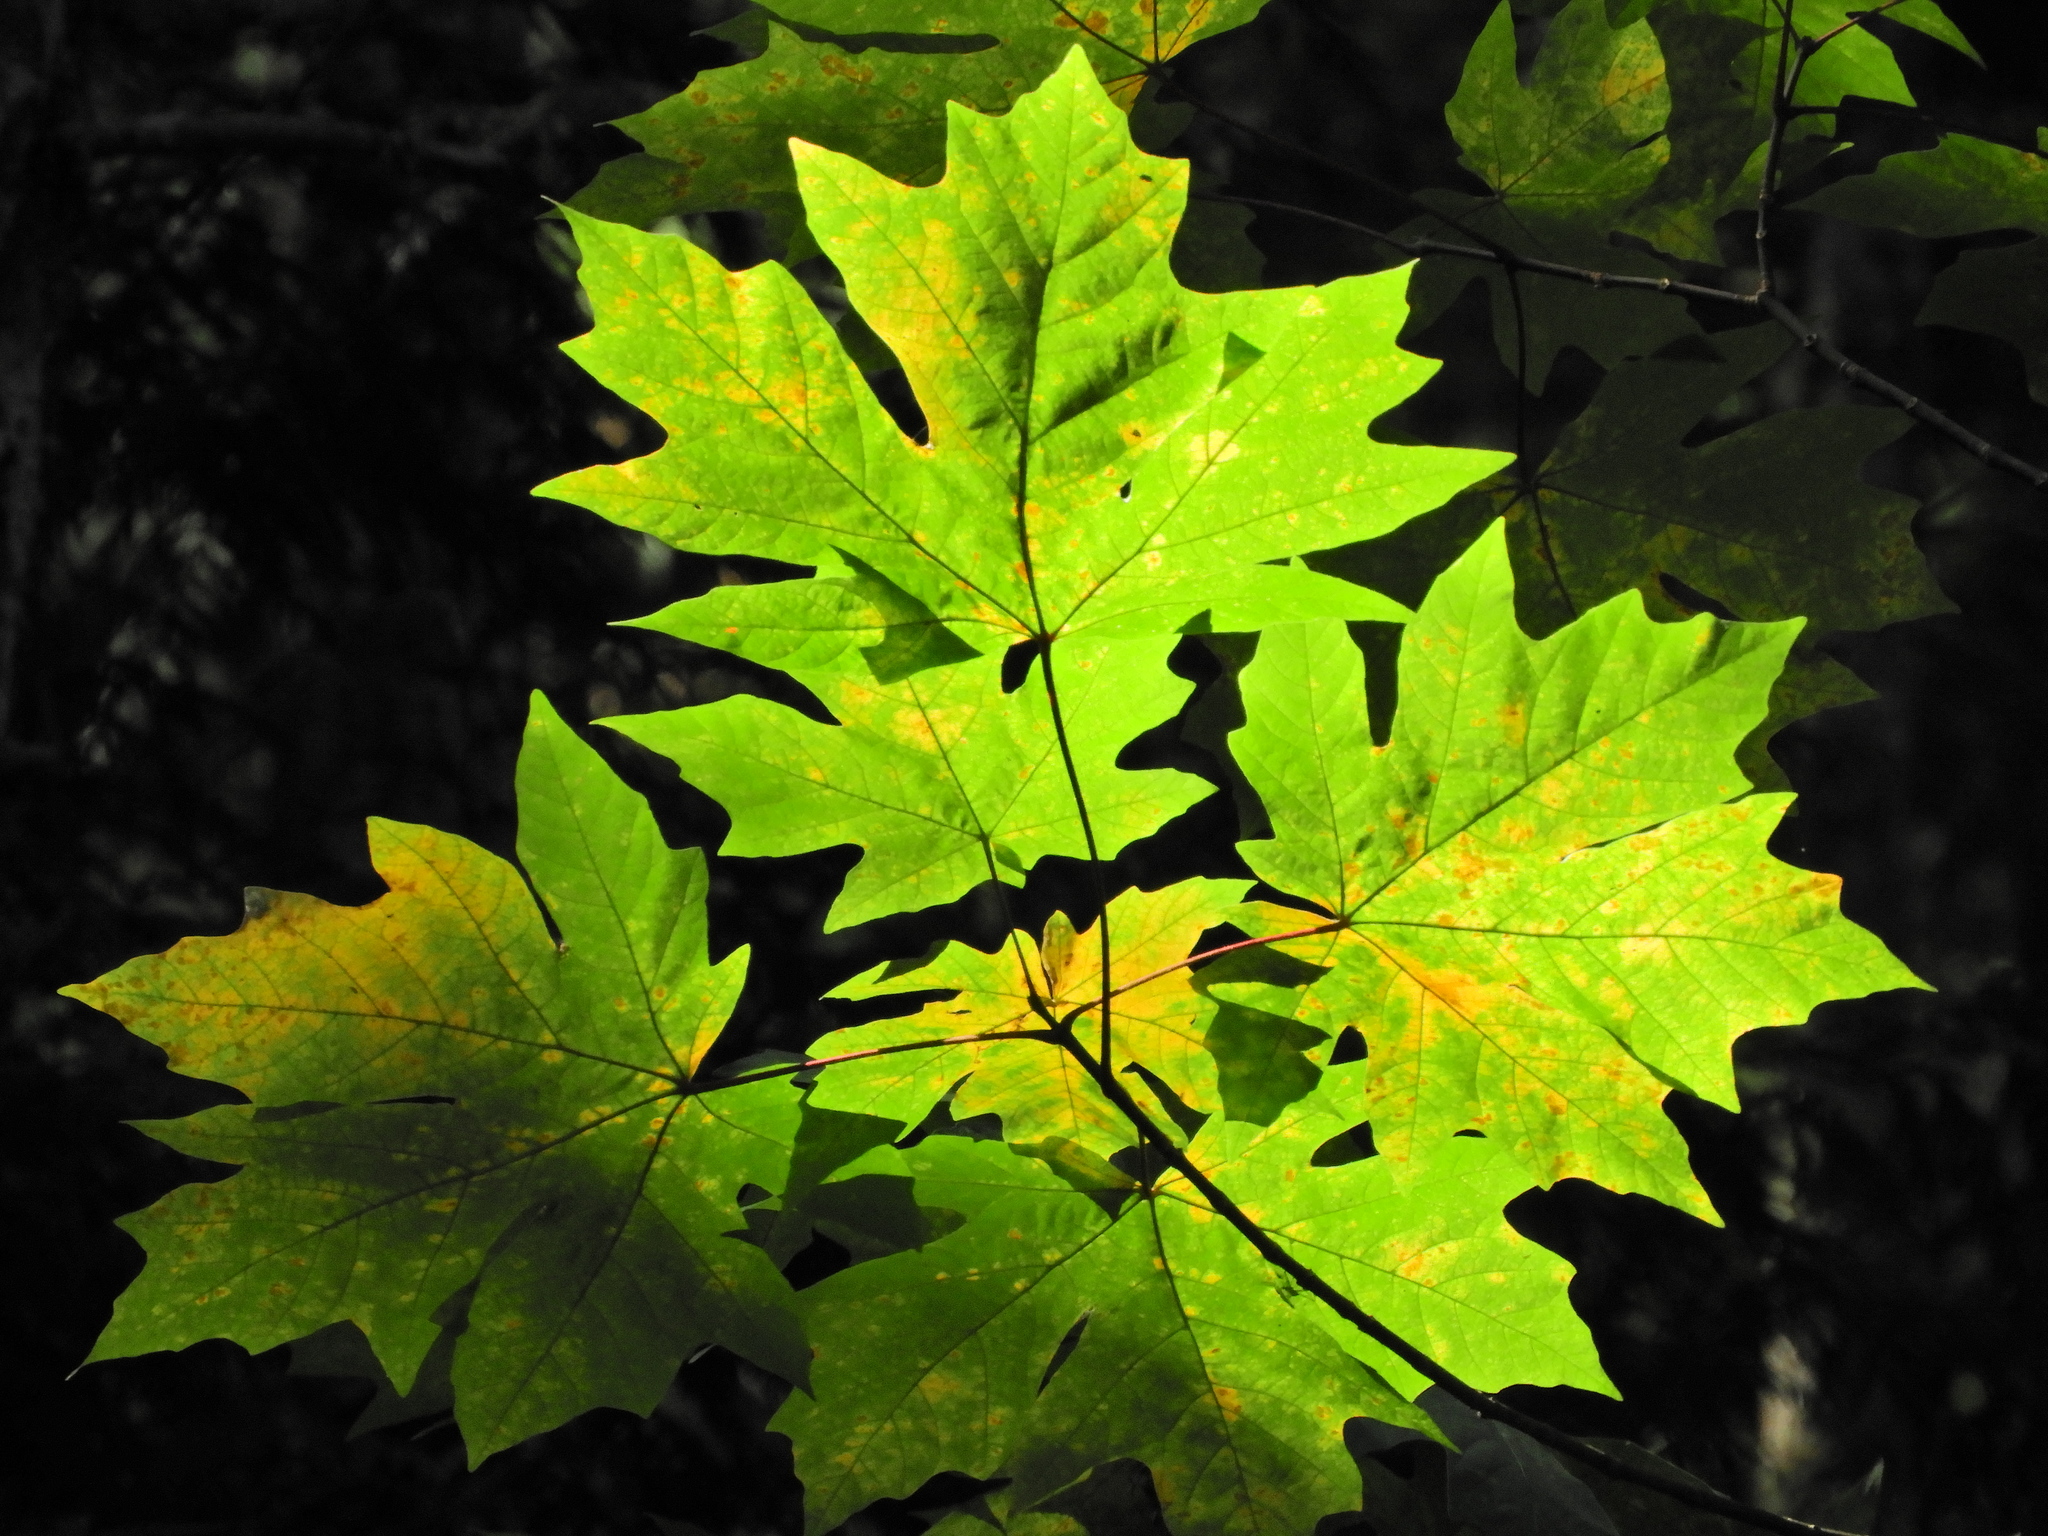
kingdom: Plantae
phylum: Tracheophyta
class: Magnoliopsida
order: Sapindales
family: Sapindaceae
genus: Acer
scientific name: Acer macrophyllum
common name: Oregon maple
